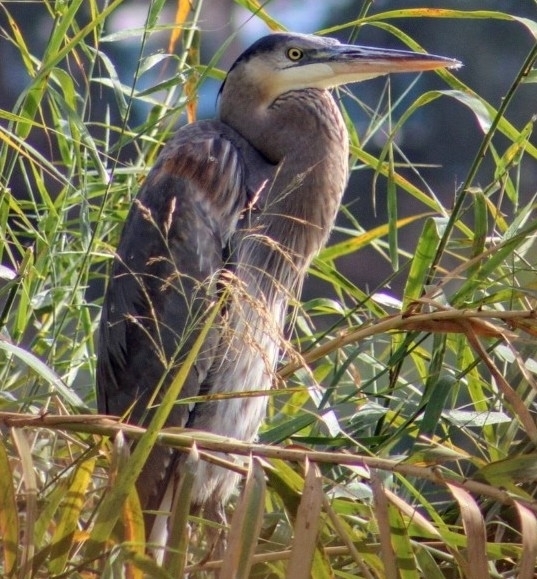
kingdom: Animalia
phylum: Chordata
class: Aves
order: Pelecaniformes
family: Ardeidae
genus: Ardea
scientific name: Ardea herodias
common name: Great blue heron
